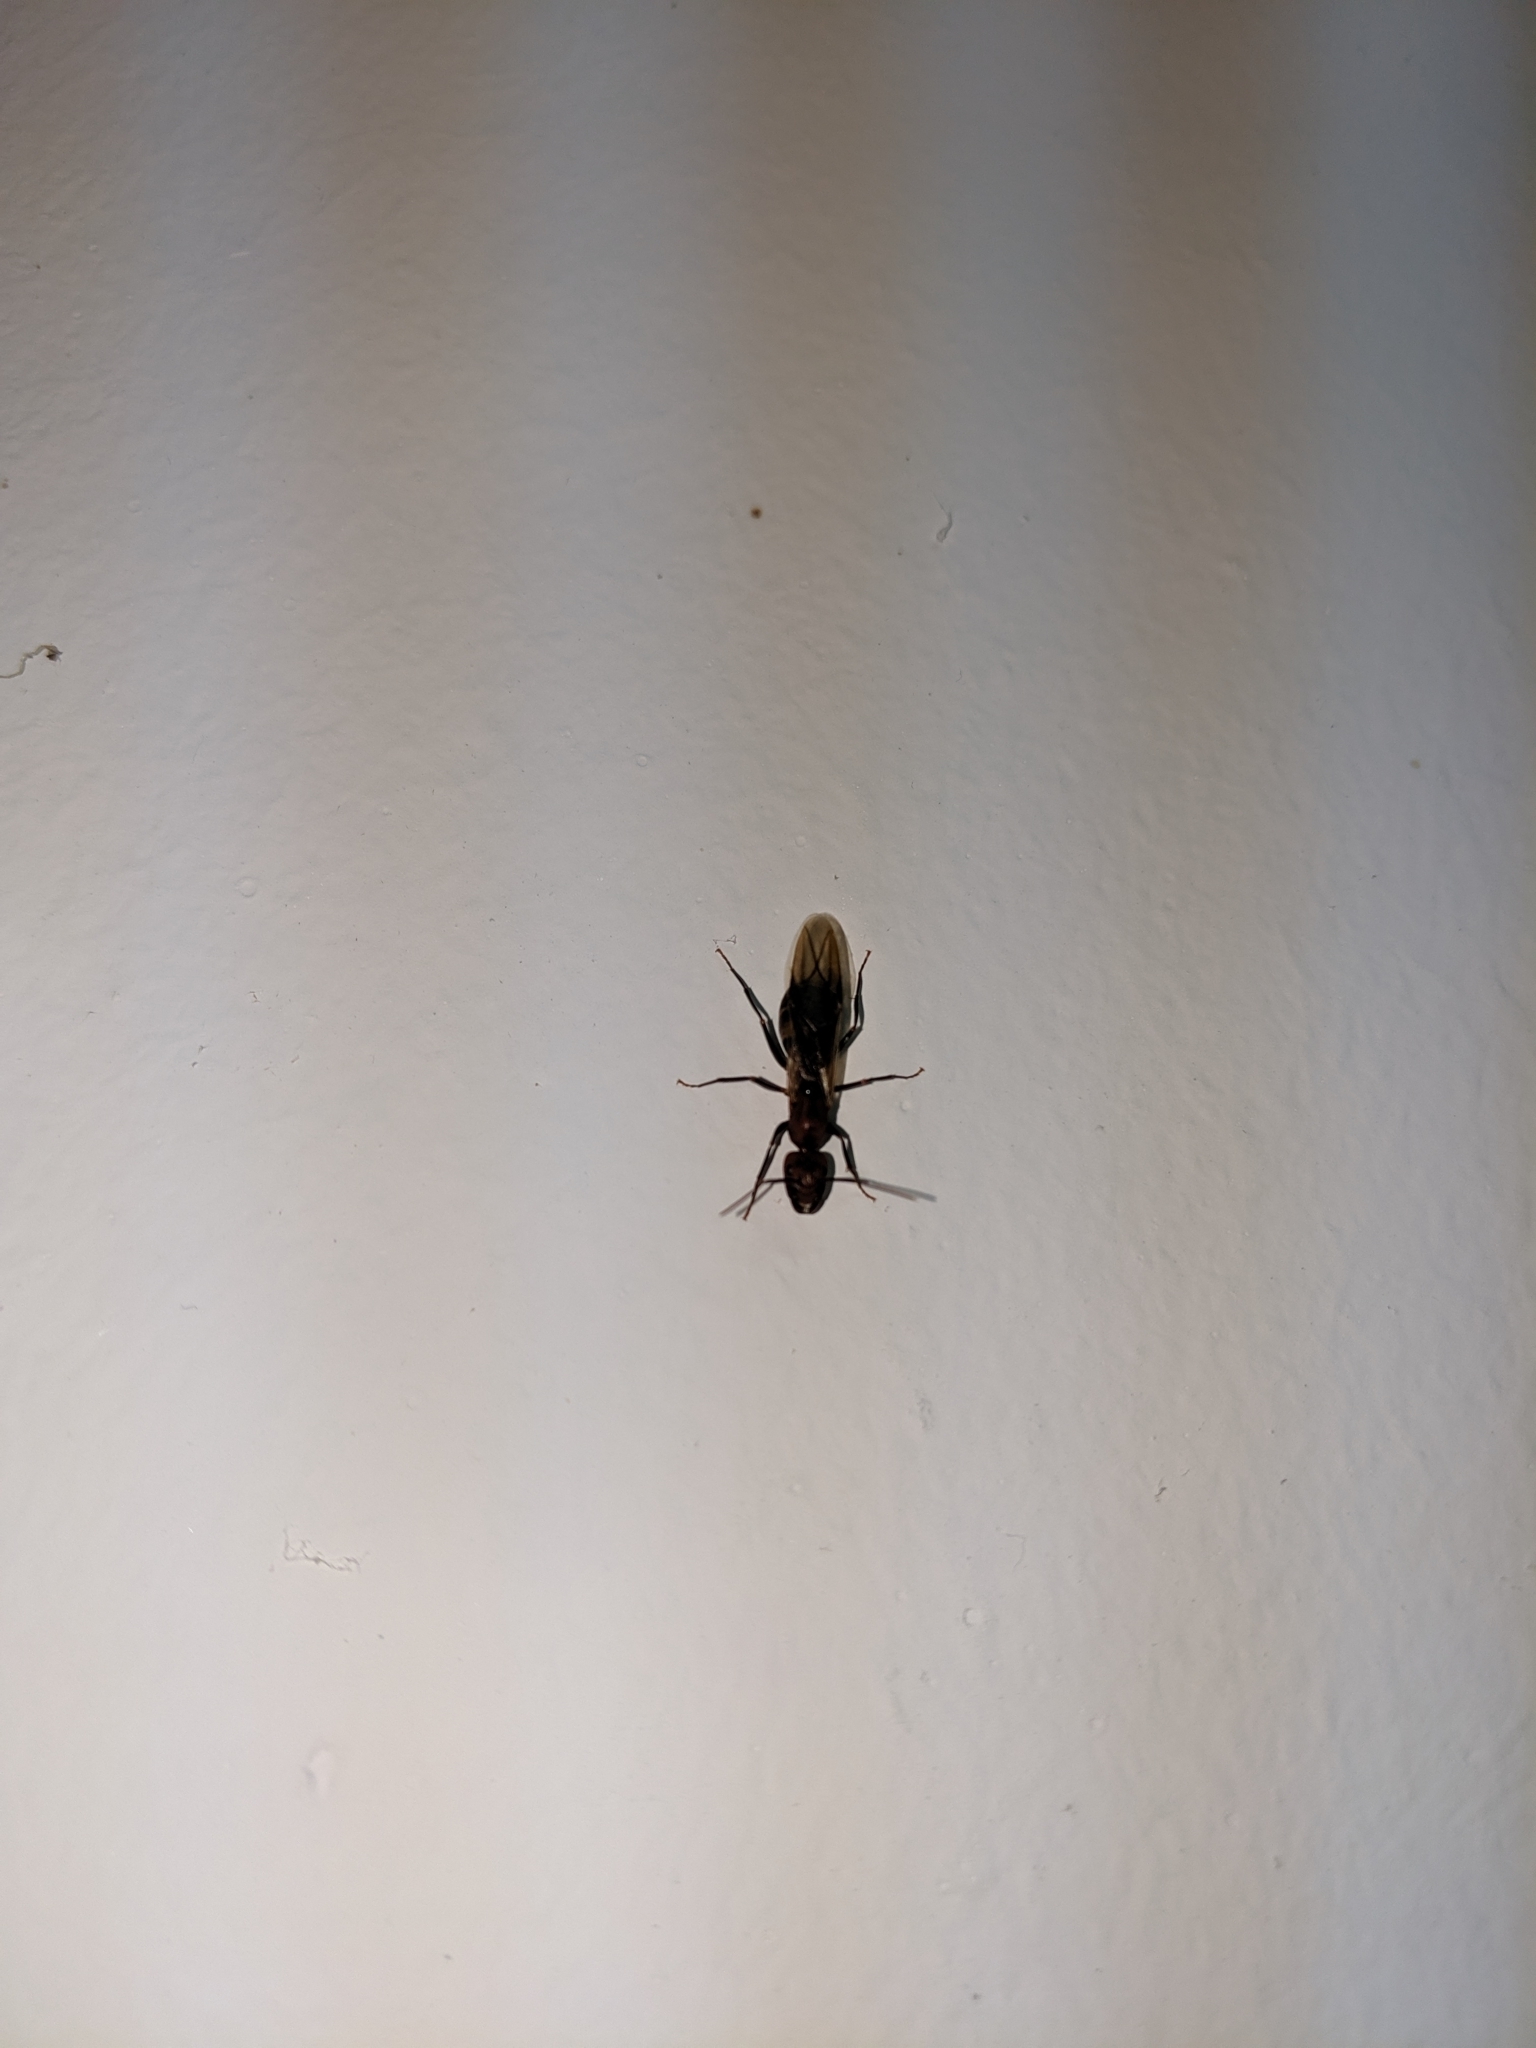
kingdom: Animalia
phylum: Arthropoda
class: Insecta
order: Hymenoptera
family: Formicidae
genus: Camponotus
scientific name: Camponotus habereri
